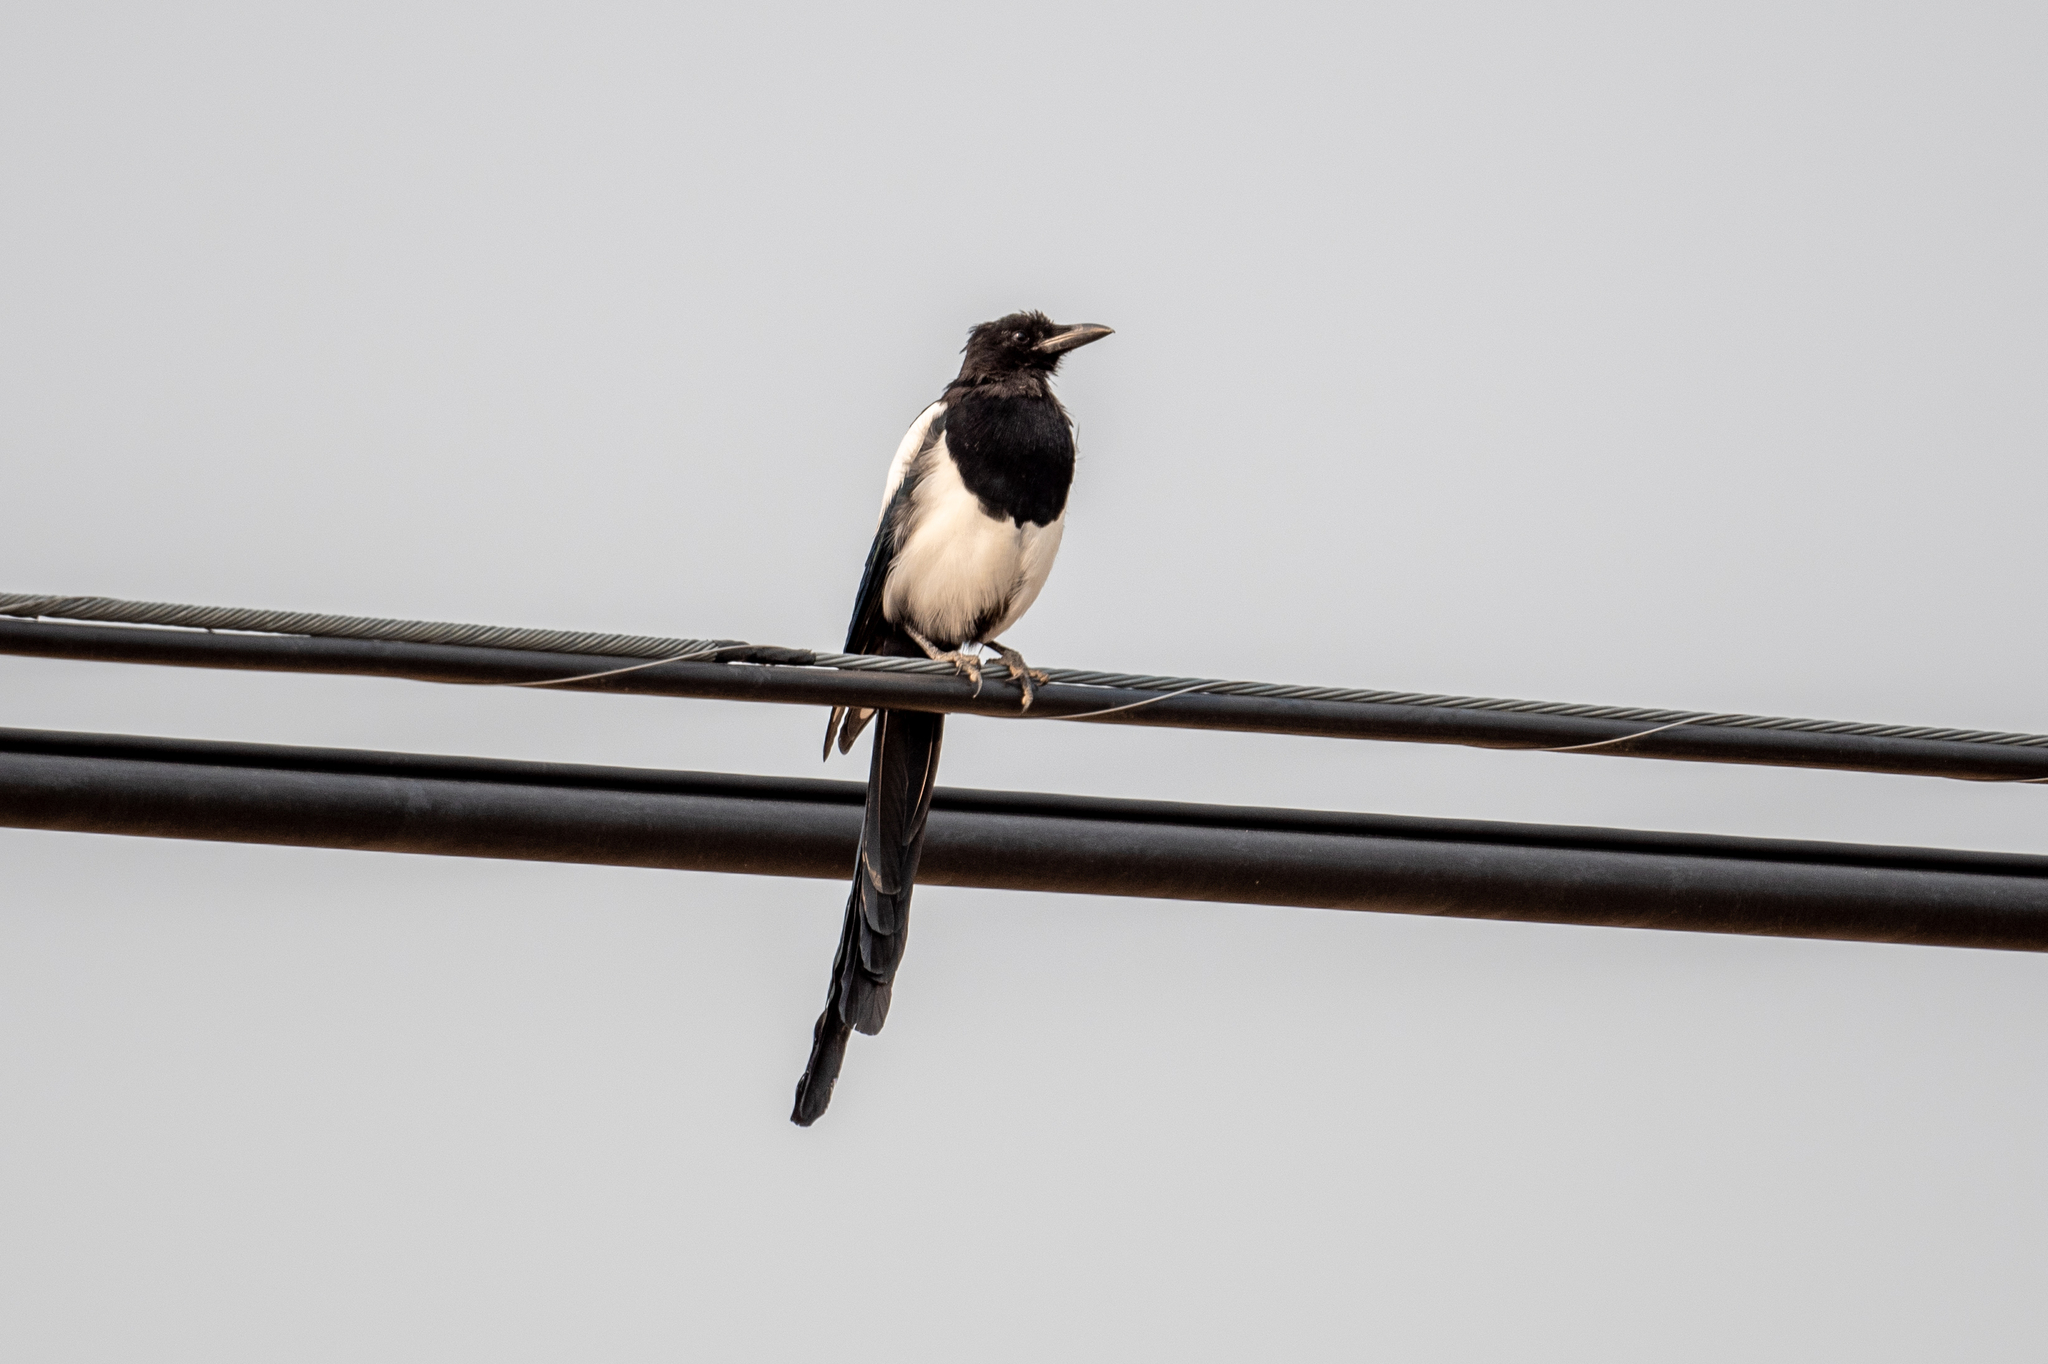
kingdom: Animalia
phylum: Chordata
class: Aves
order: Passeriformes
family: Corvidae
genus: Pica
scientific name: Pica hudsonia
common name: Black-billed magpie
